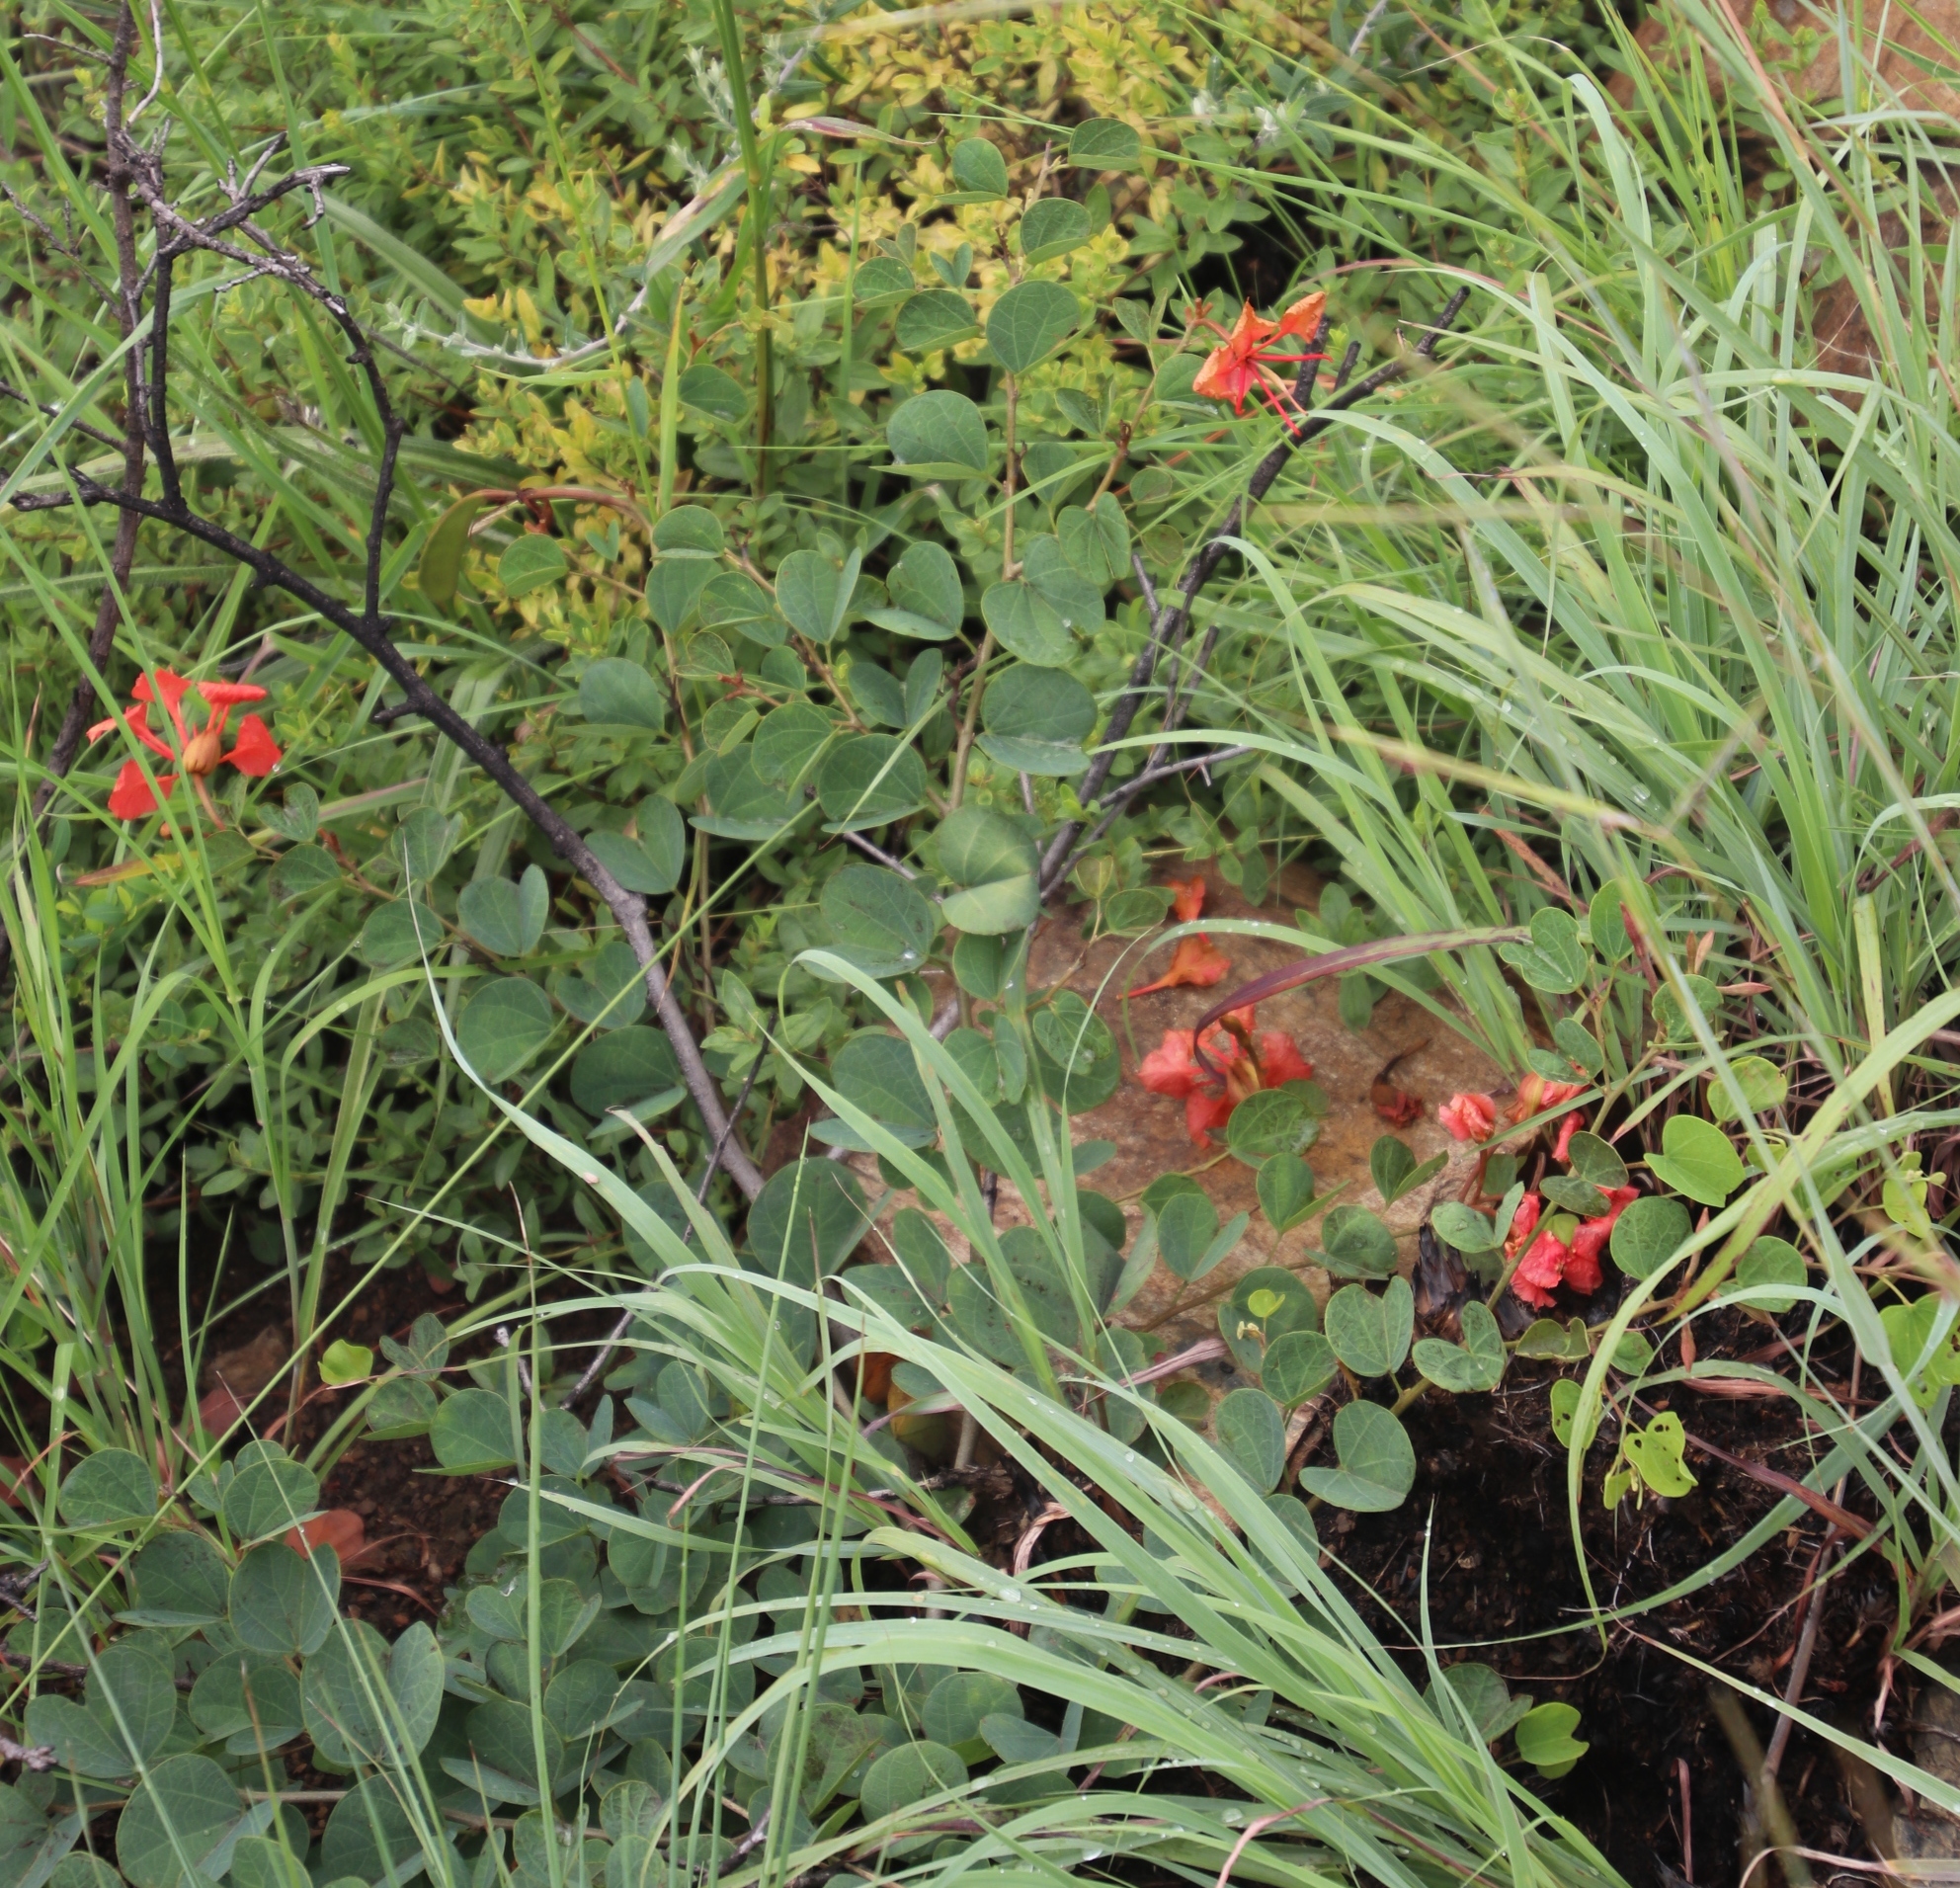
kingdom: Plantae
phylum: Tracheophyta
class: Magnoliopsida
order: Fabales
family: Fabaceae
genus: Bauhinia
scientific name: Bauhinia galpinii
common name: African plume
